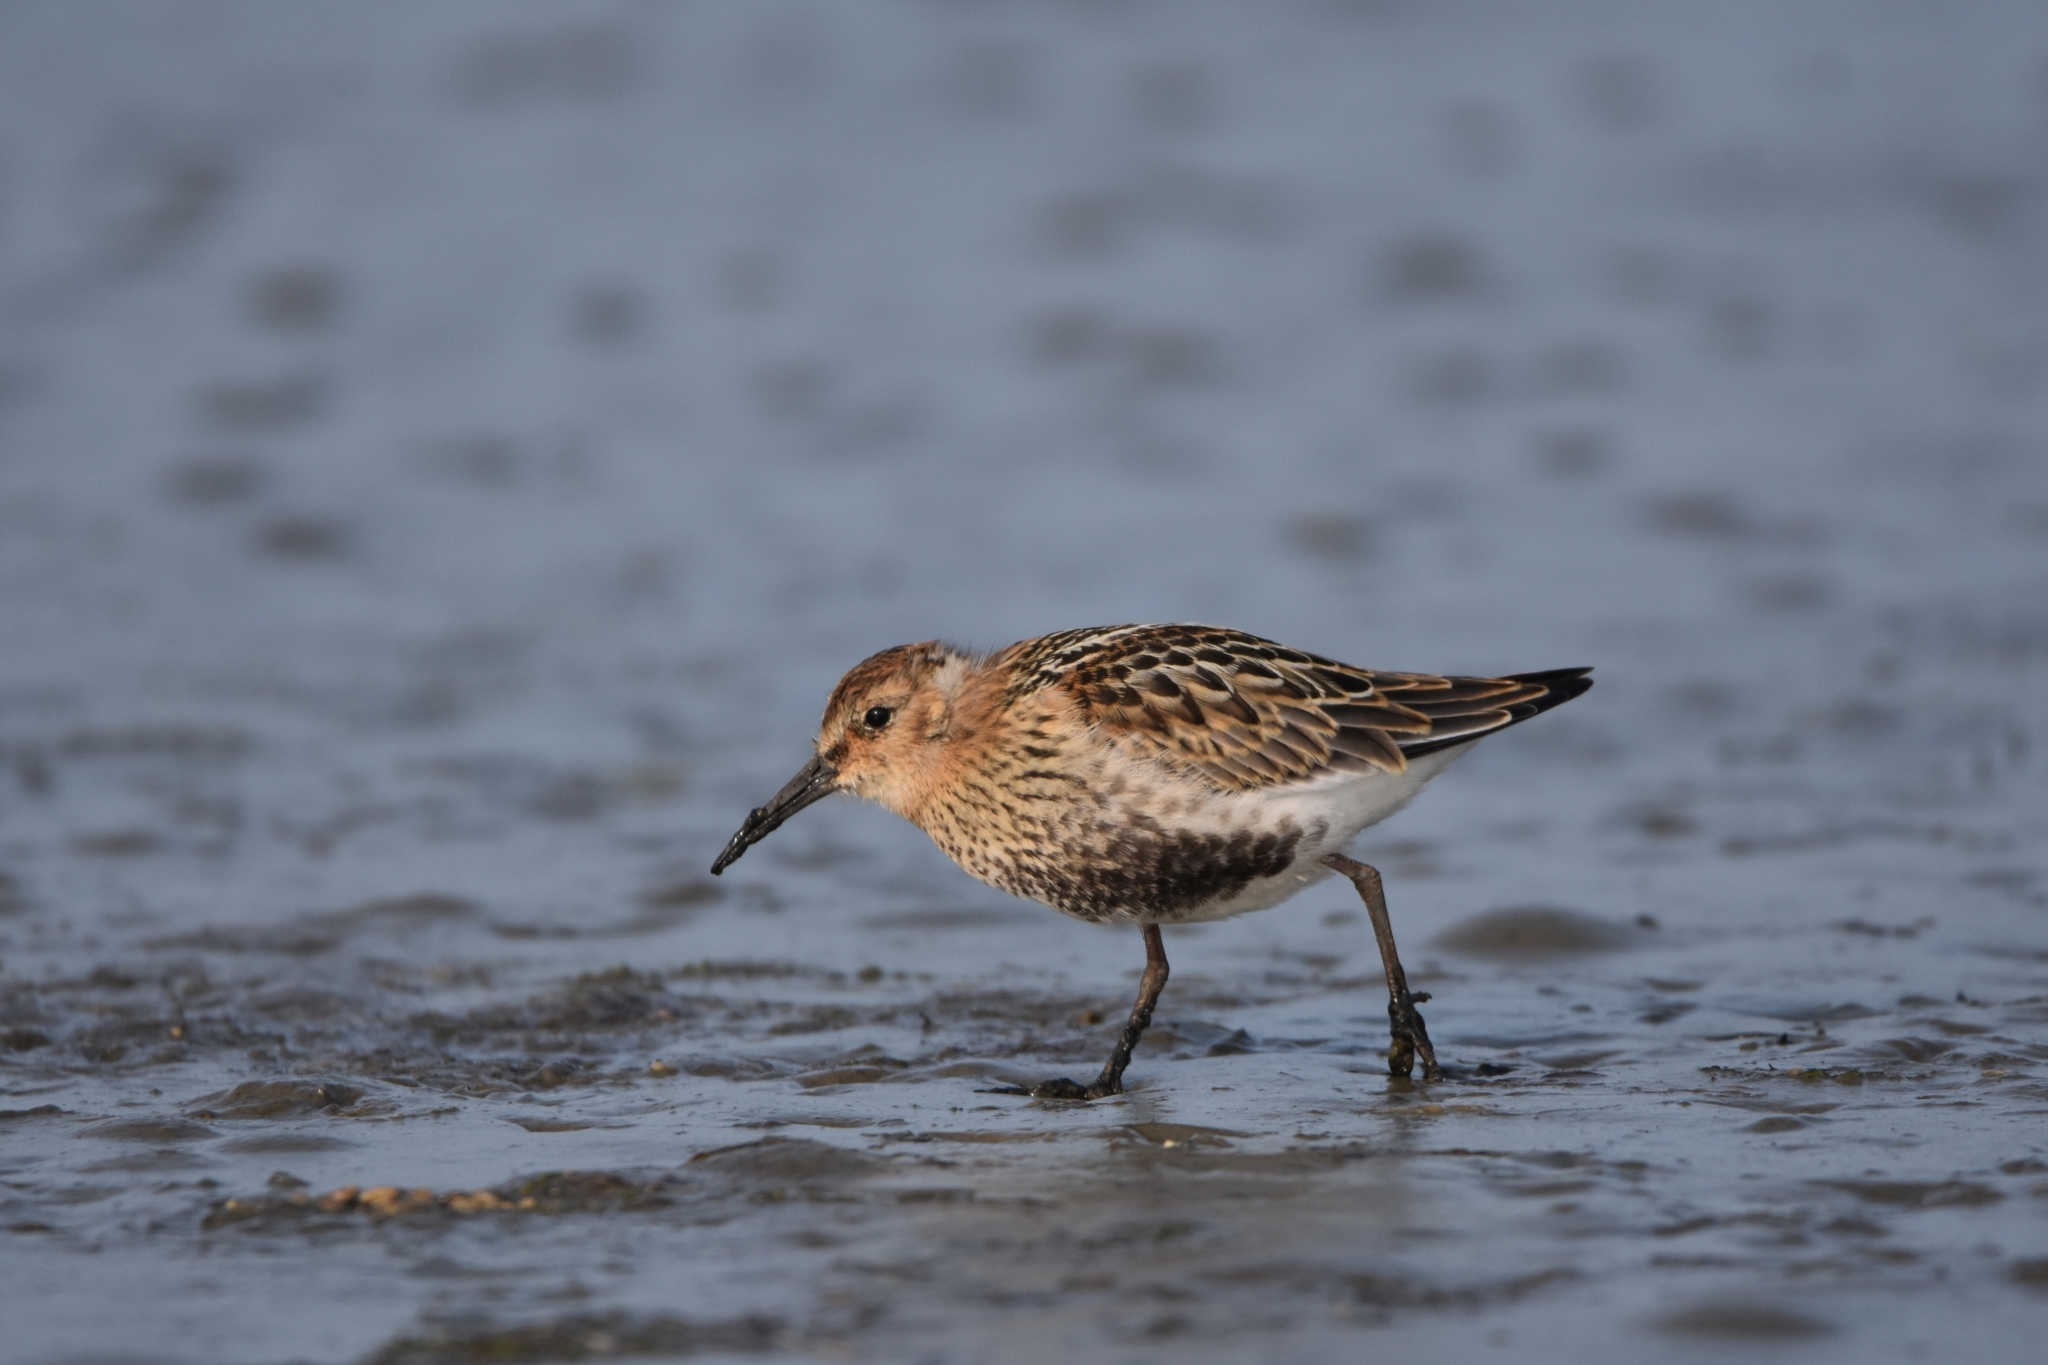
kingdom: Animalia
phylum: Chordata
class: Aves
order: Charadriiformes
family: Scolopacidae
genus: Calidris
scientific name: Calidris alpina
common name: Dunlin
